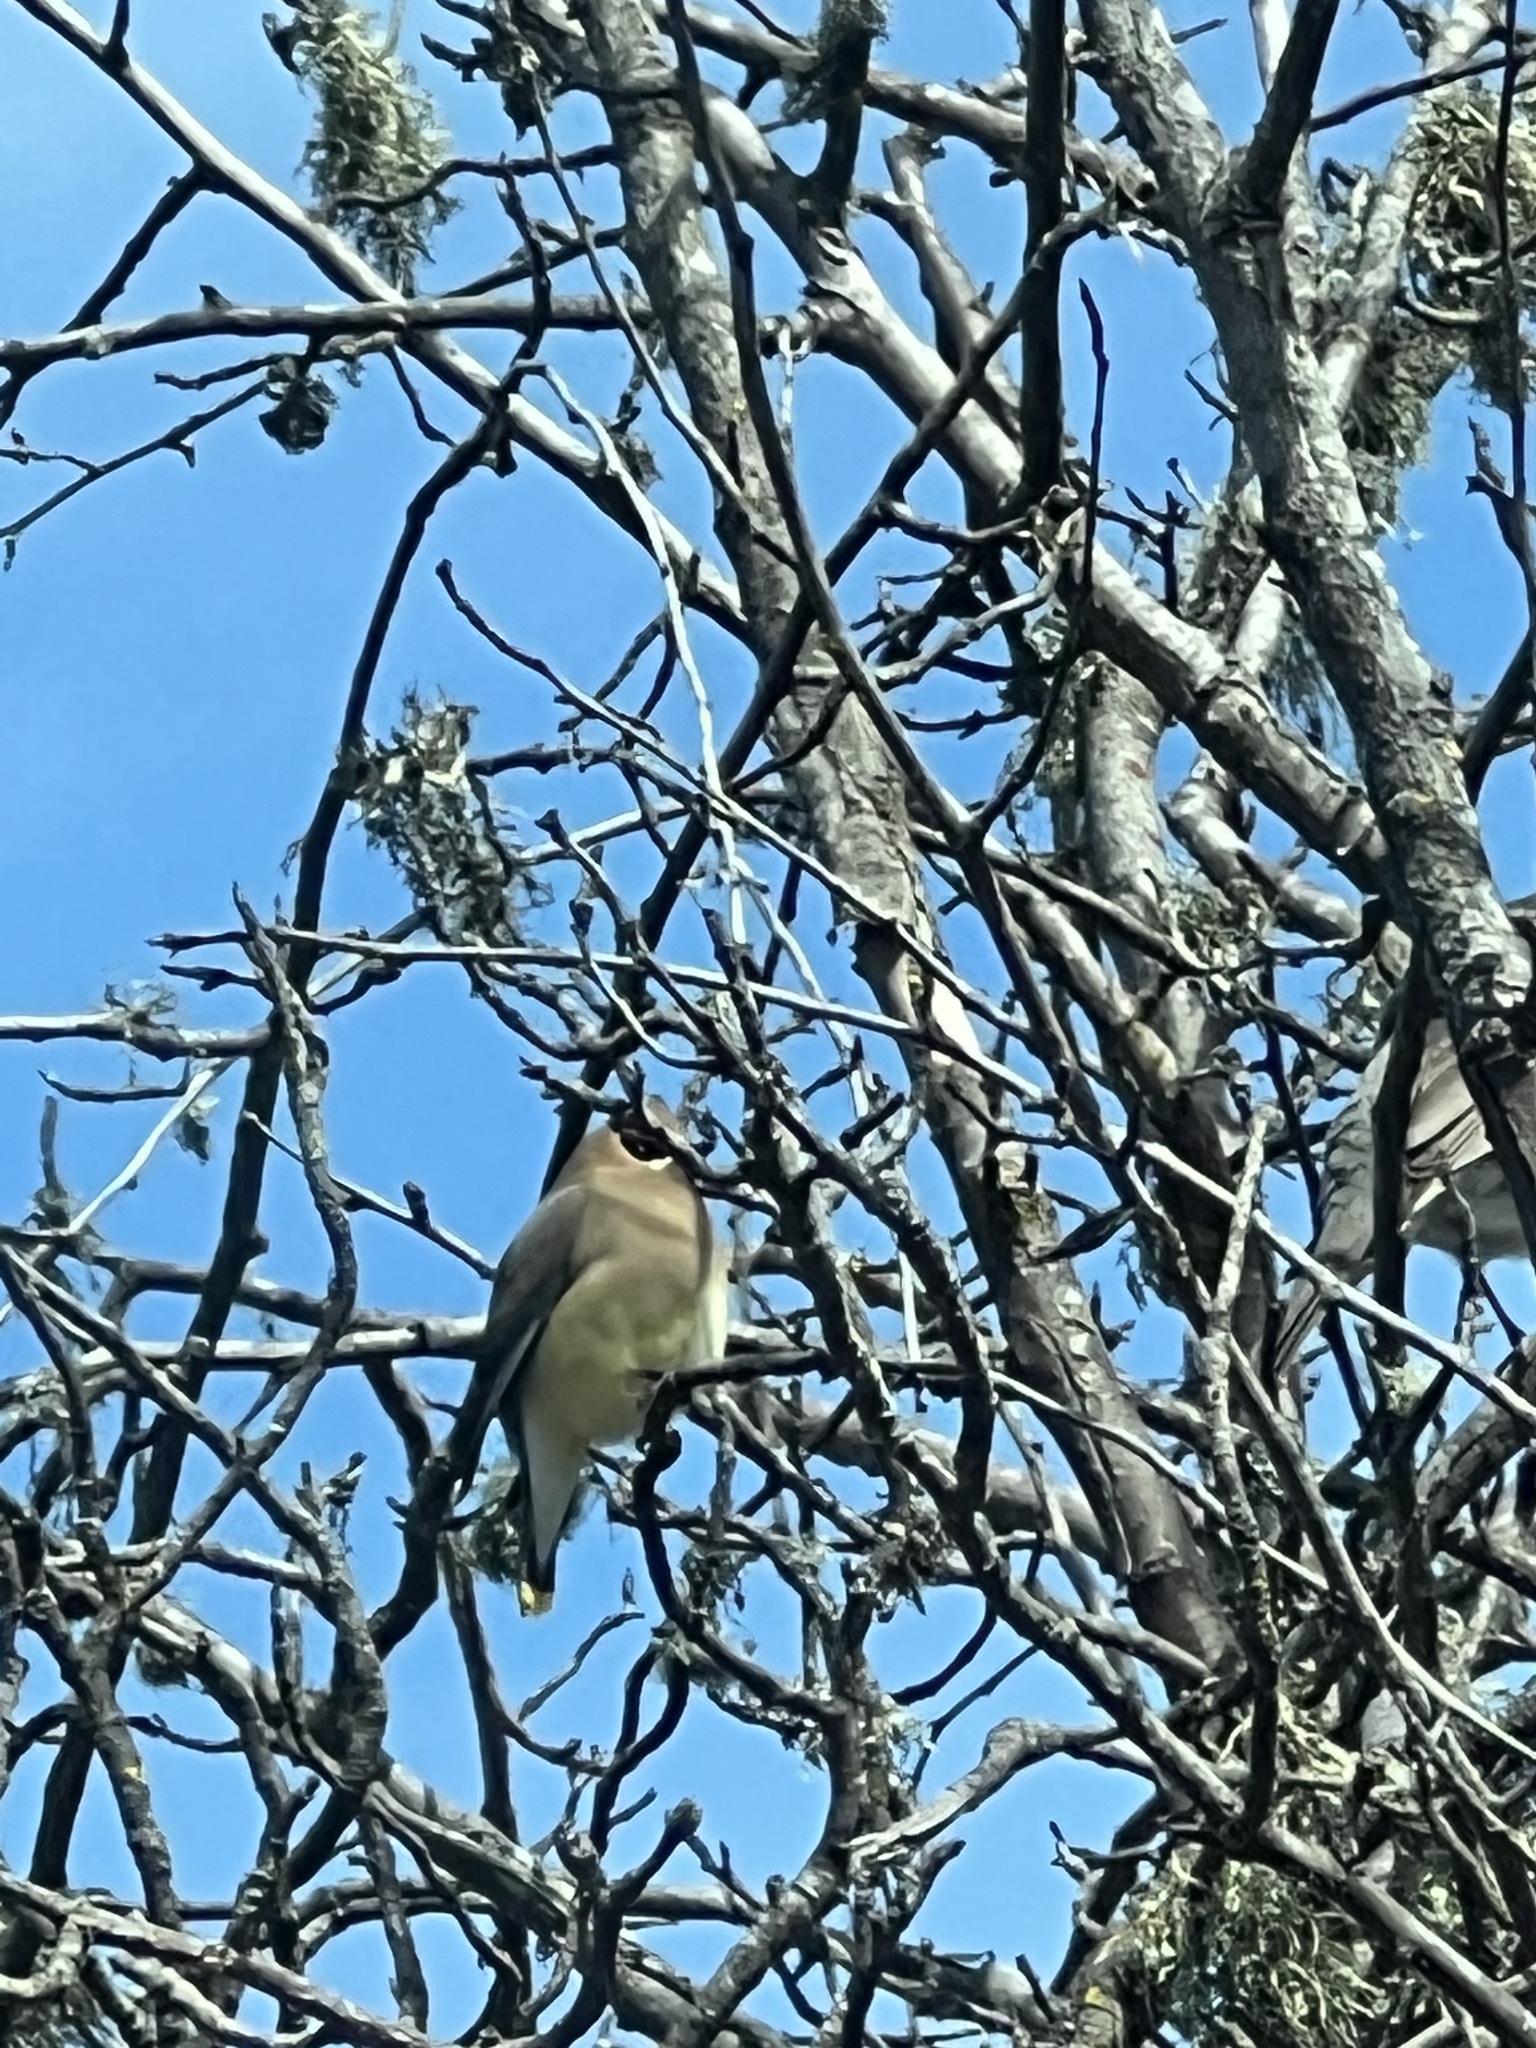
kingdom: Animalia
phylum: Chordata
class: Aves
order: Passeriformes
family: Bombycillidae
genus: Bombycilla
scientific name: Bombycilla cedrorum
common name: Cedar waxwing
